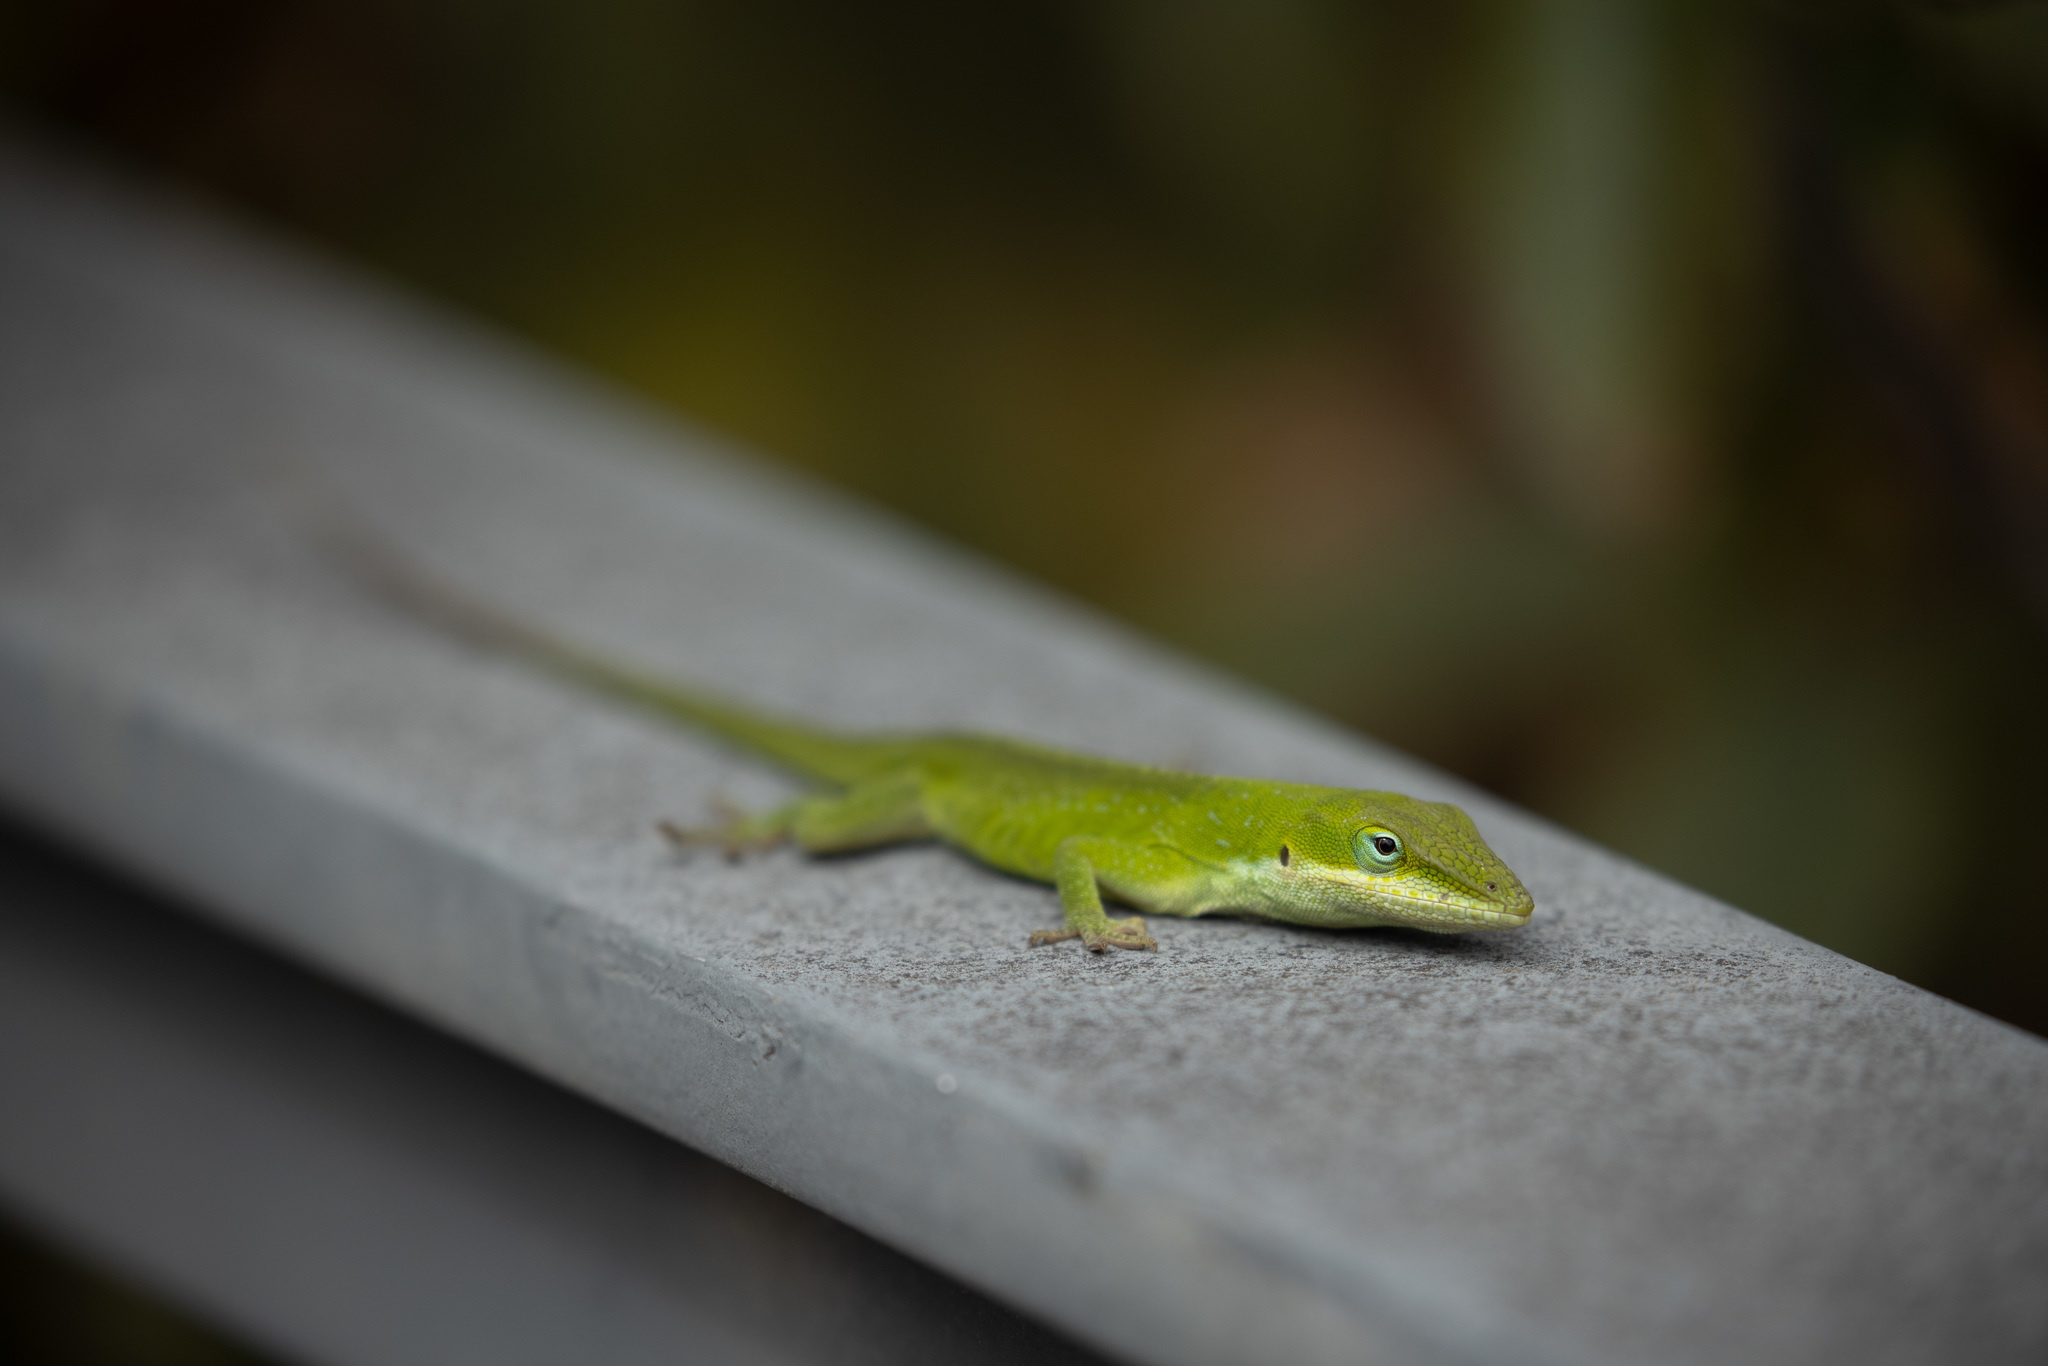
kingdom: Animalia
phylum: Chordata
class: Squamata
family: Dactyloidae
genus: Anolis
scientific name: Anolis carolinensis
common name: Green anole
